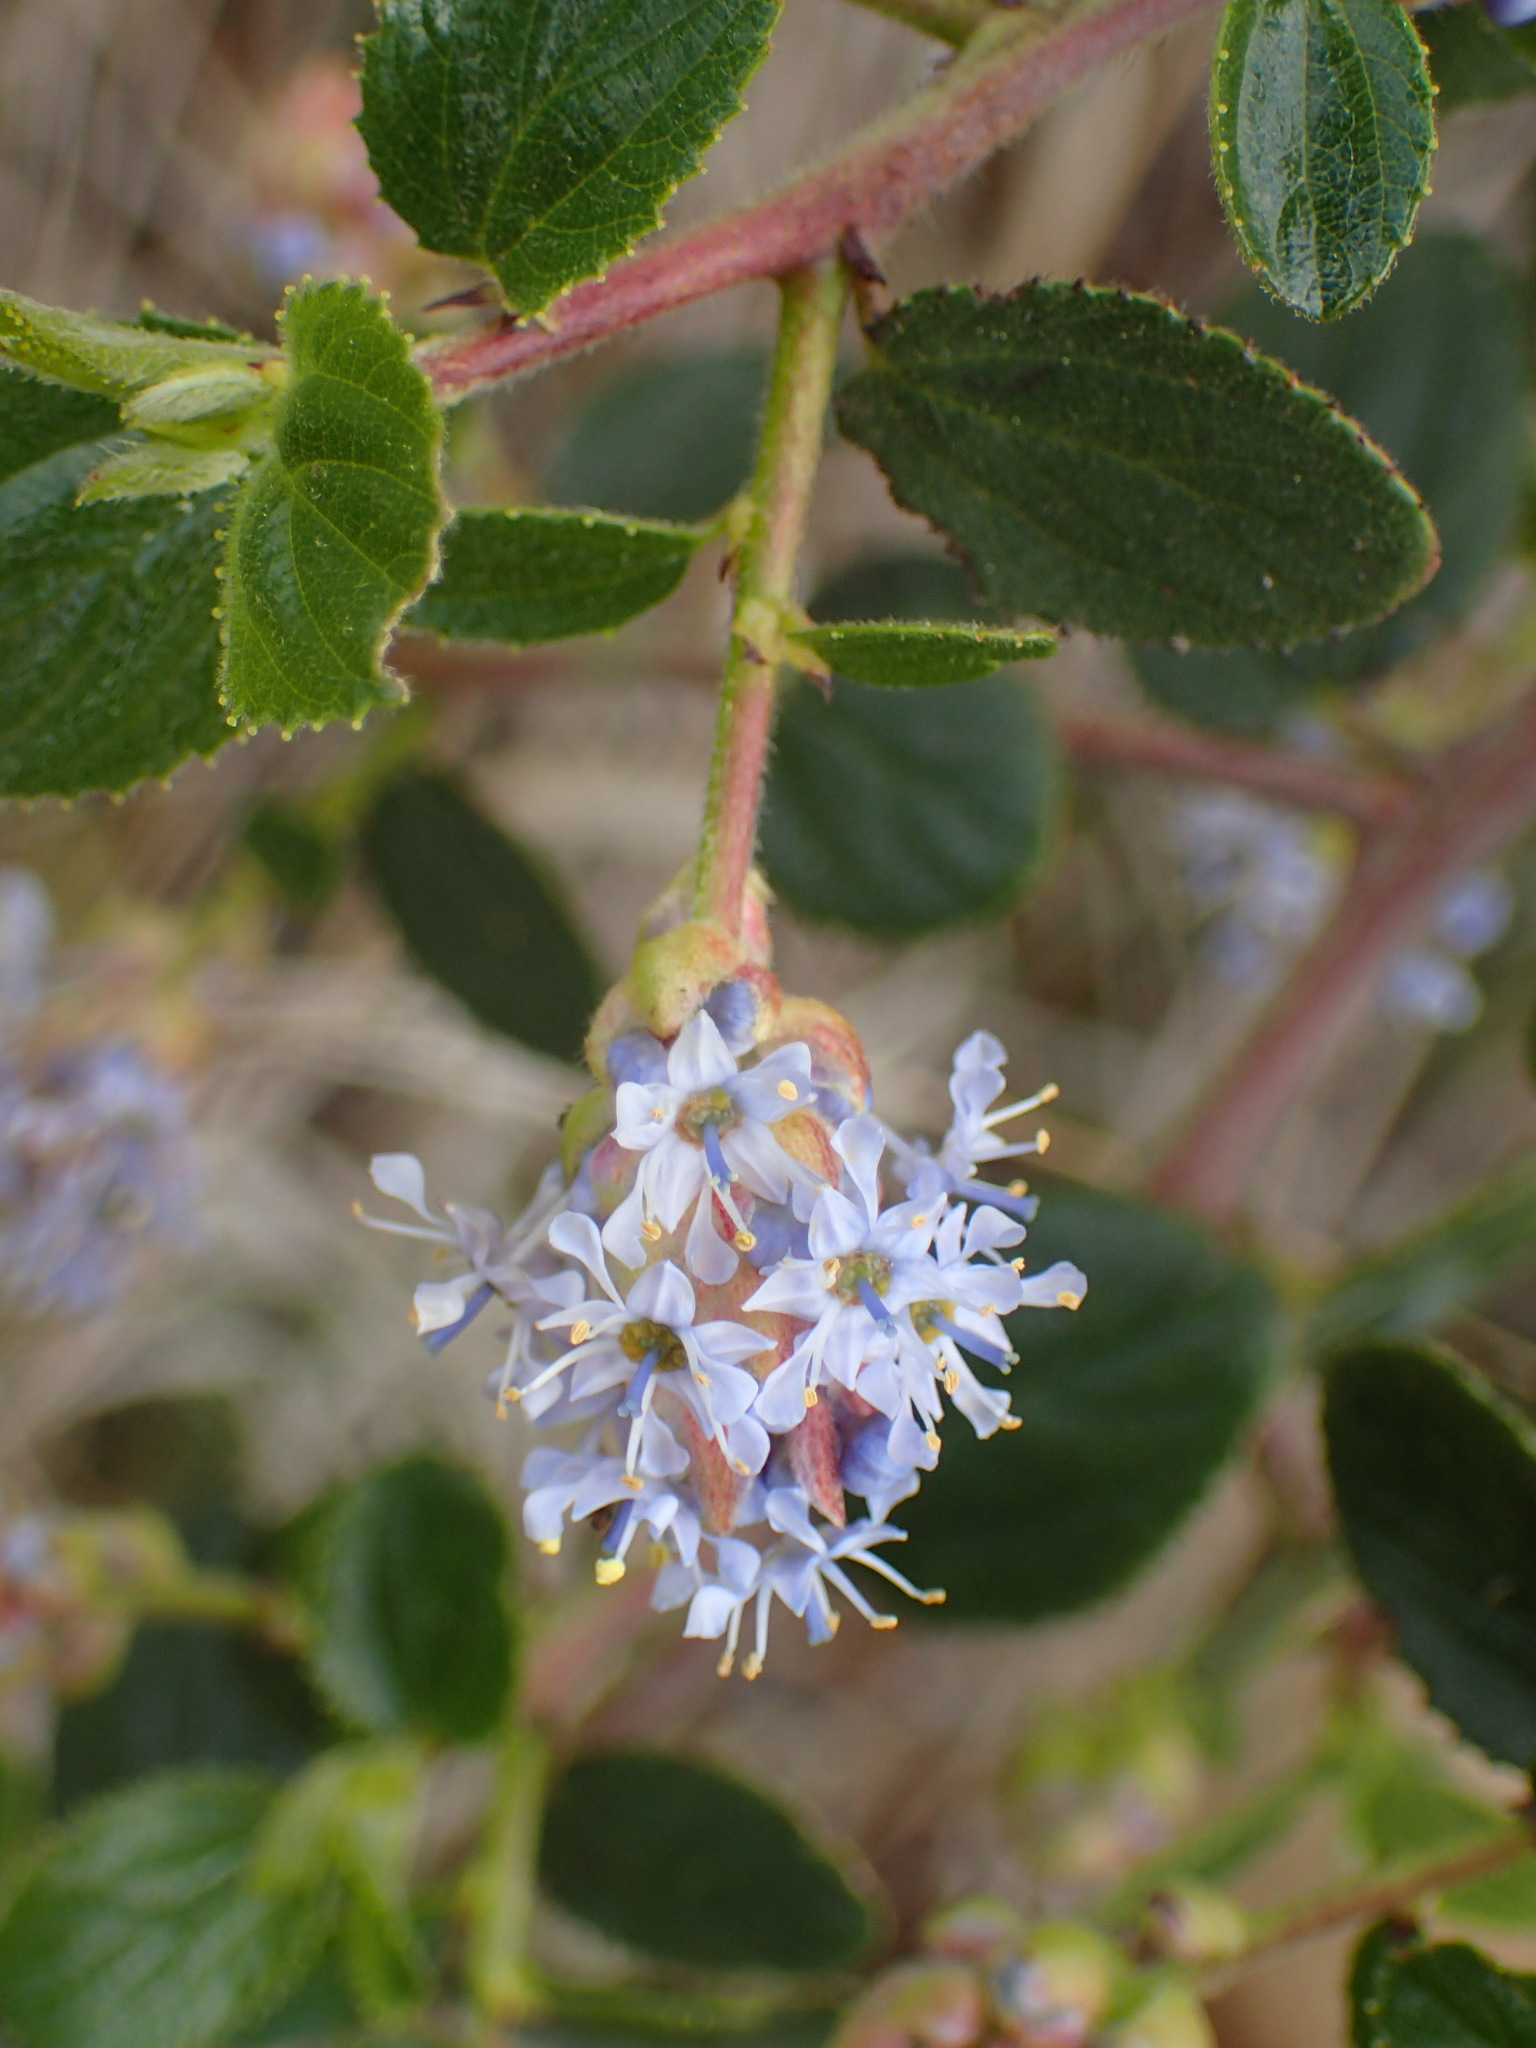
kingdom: Plantae
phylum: Tracheophyta
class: Magnoliopsida
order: Rosales
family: Rhamnaceae
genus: Ceanothus
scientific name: Ceanothus oliganthus
